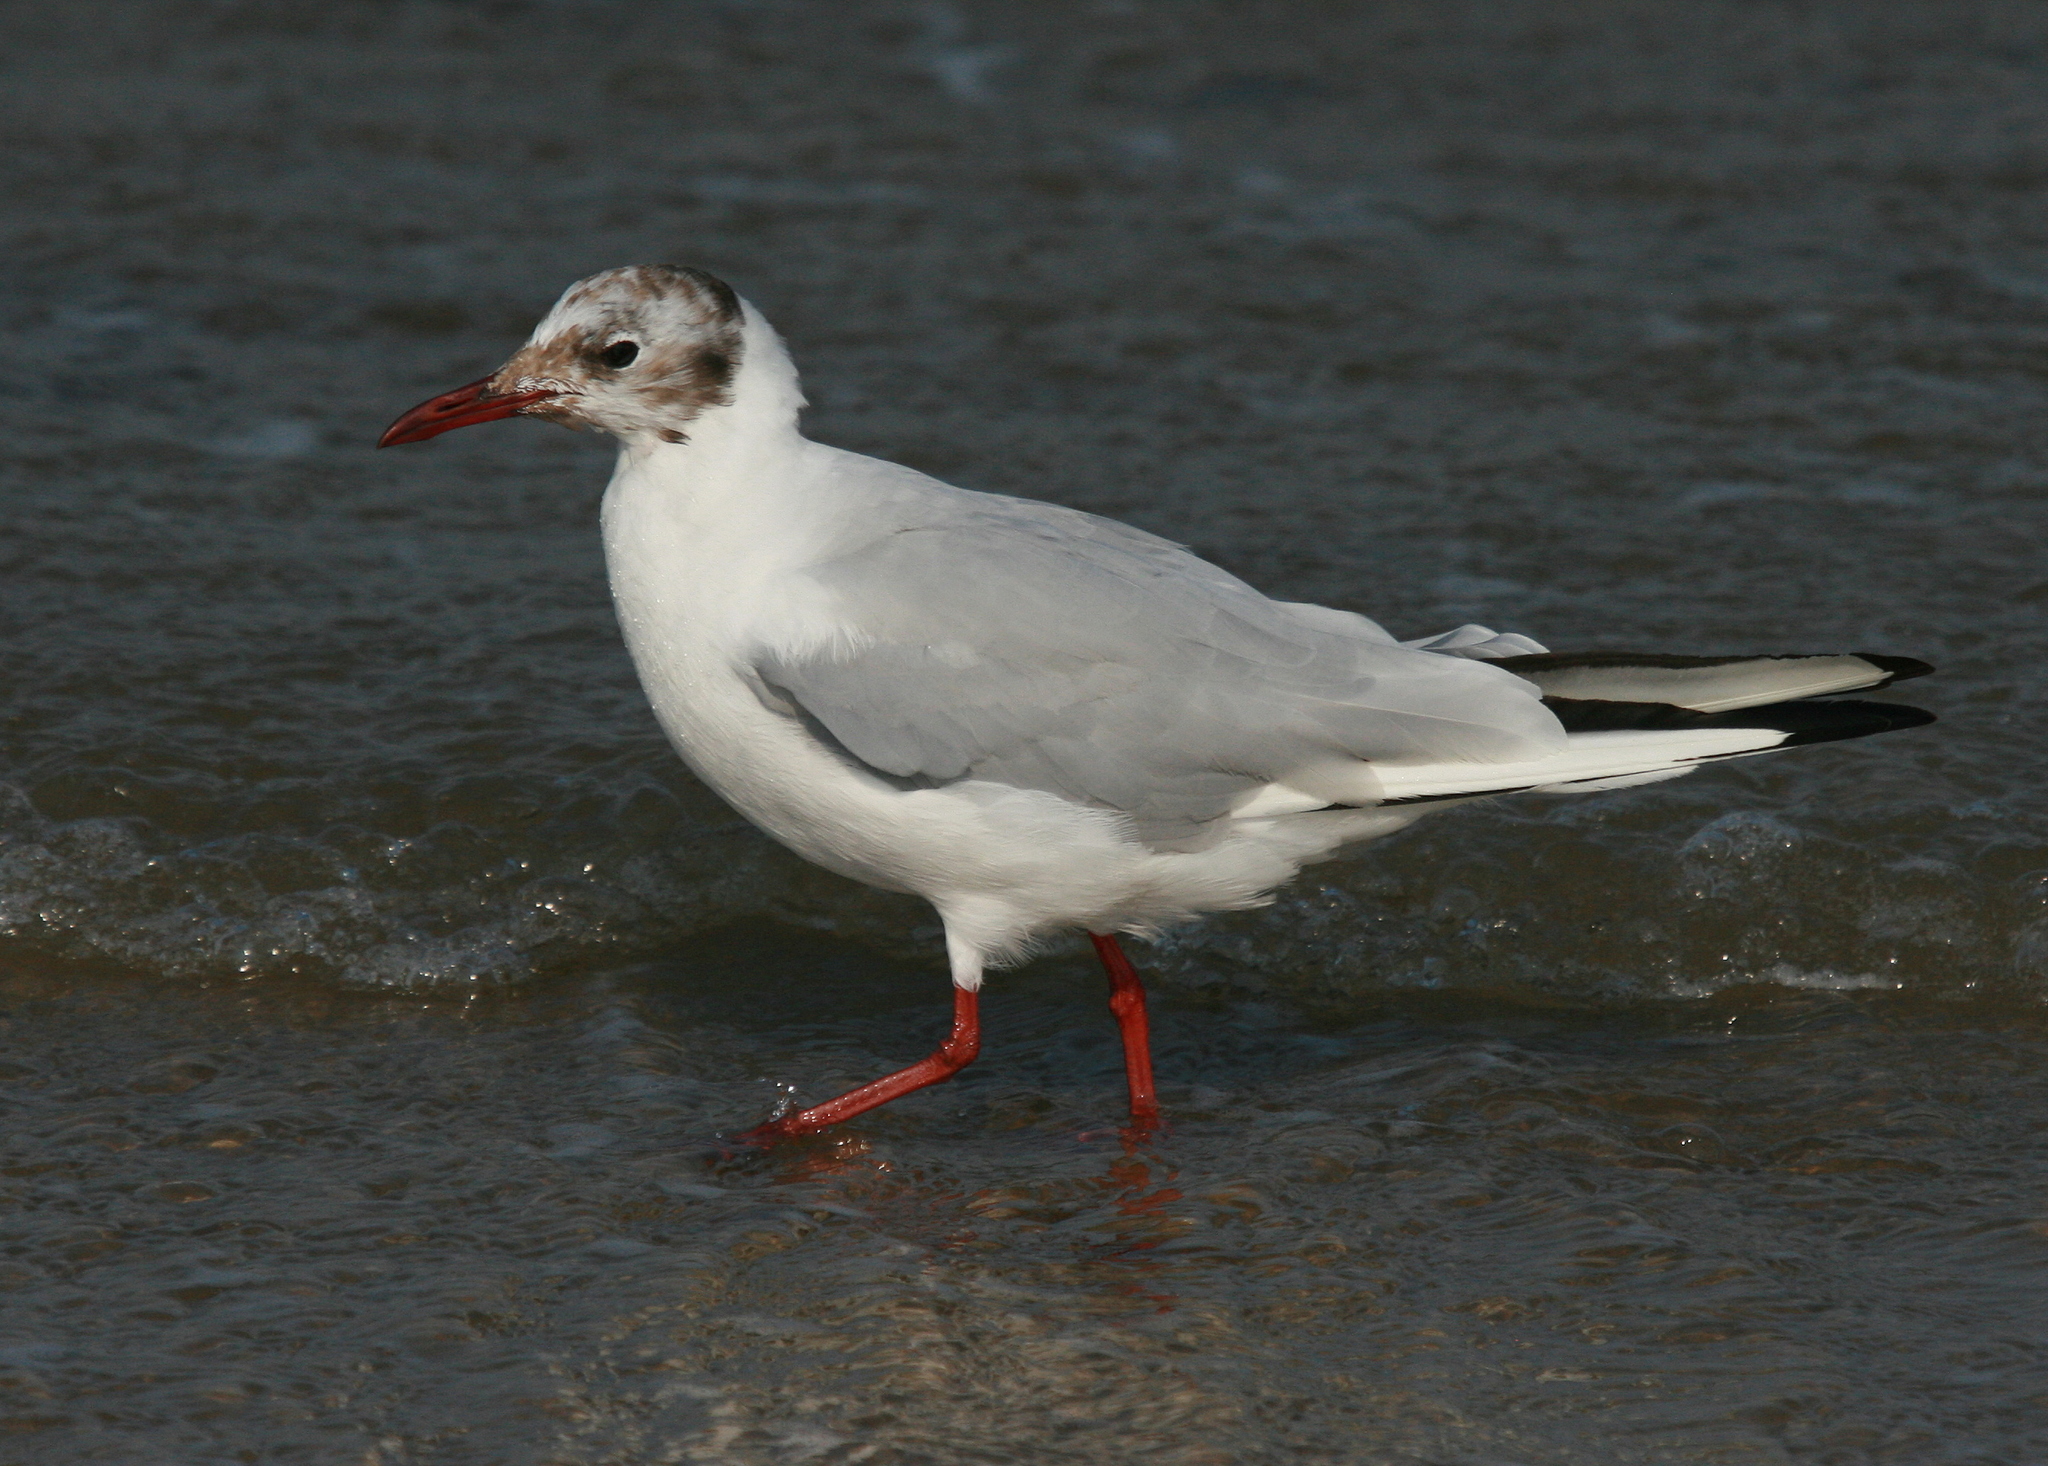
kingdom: Animalia
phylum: Chordata
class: Aves
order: Charadriiformes
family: Laridae
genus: Chroicocephalus
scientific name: Chroicocephalus ridibundus
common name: Black-headed gull
